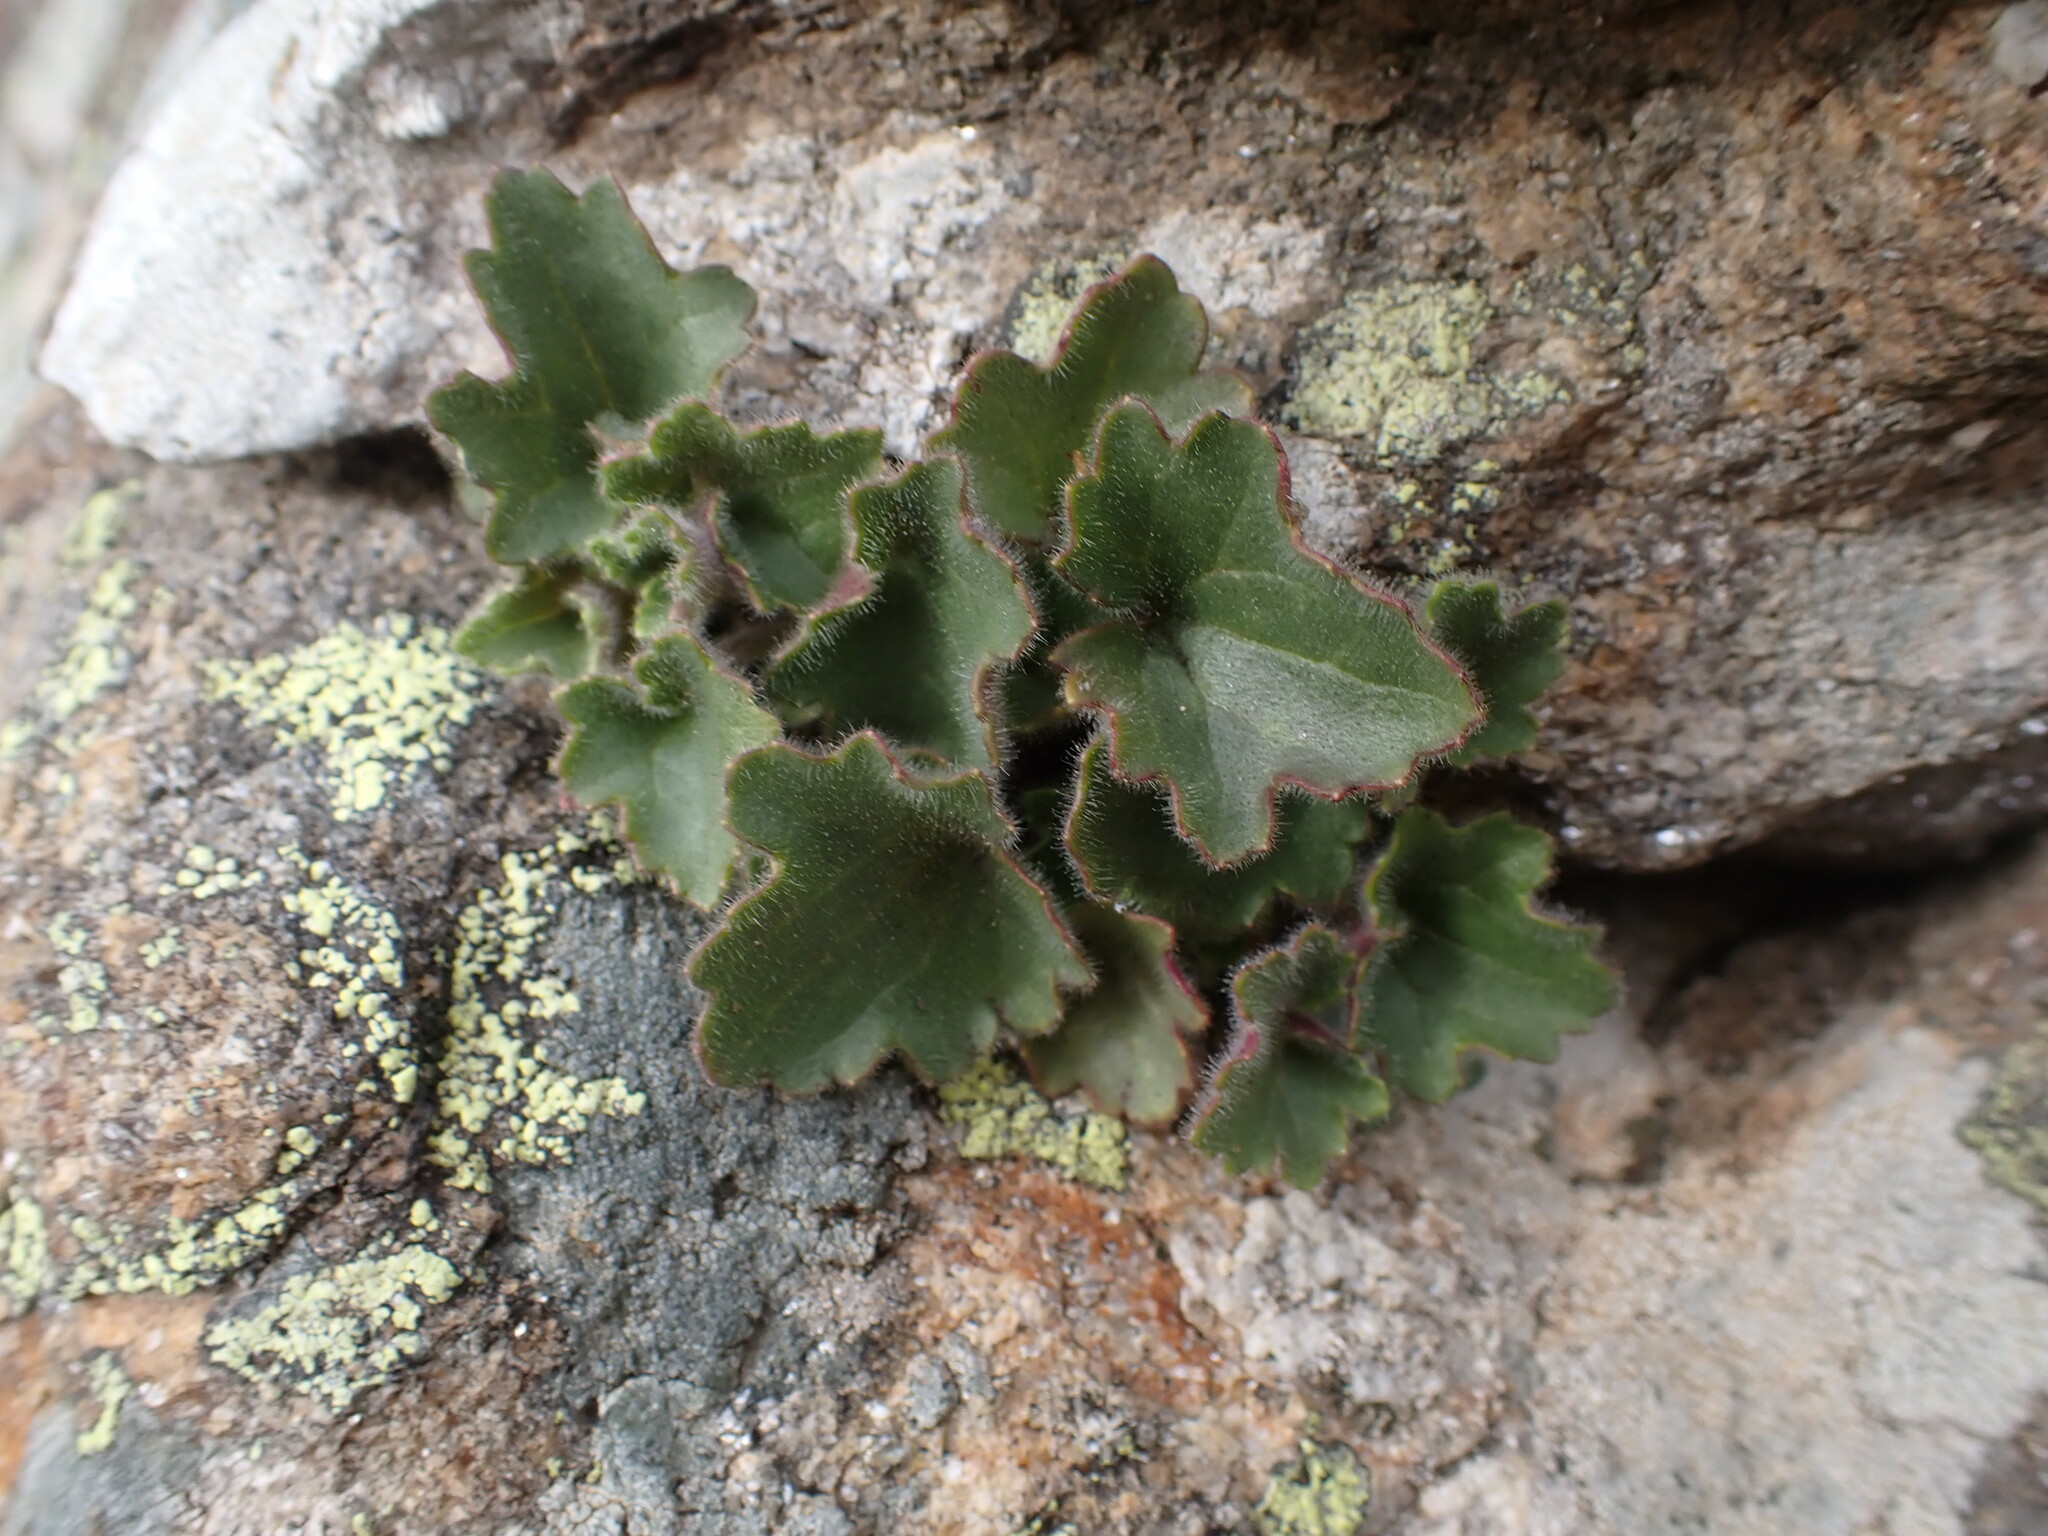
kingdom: Plantae
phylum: Tracheophyta
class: Magnoliopsida
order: Lamiales
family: Plantaginaceae
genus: Asarina
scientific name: Asarina procumbens
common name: Trailing snapdragon
